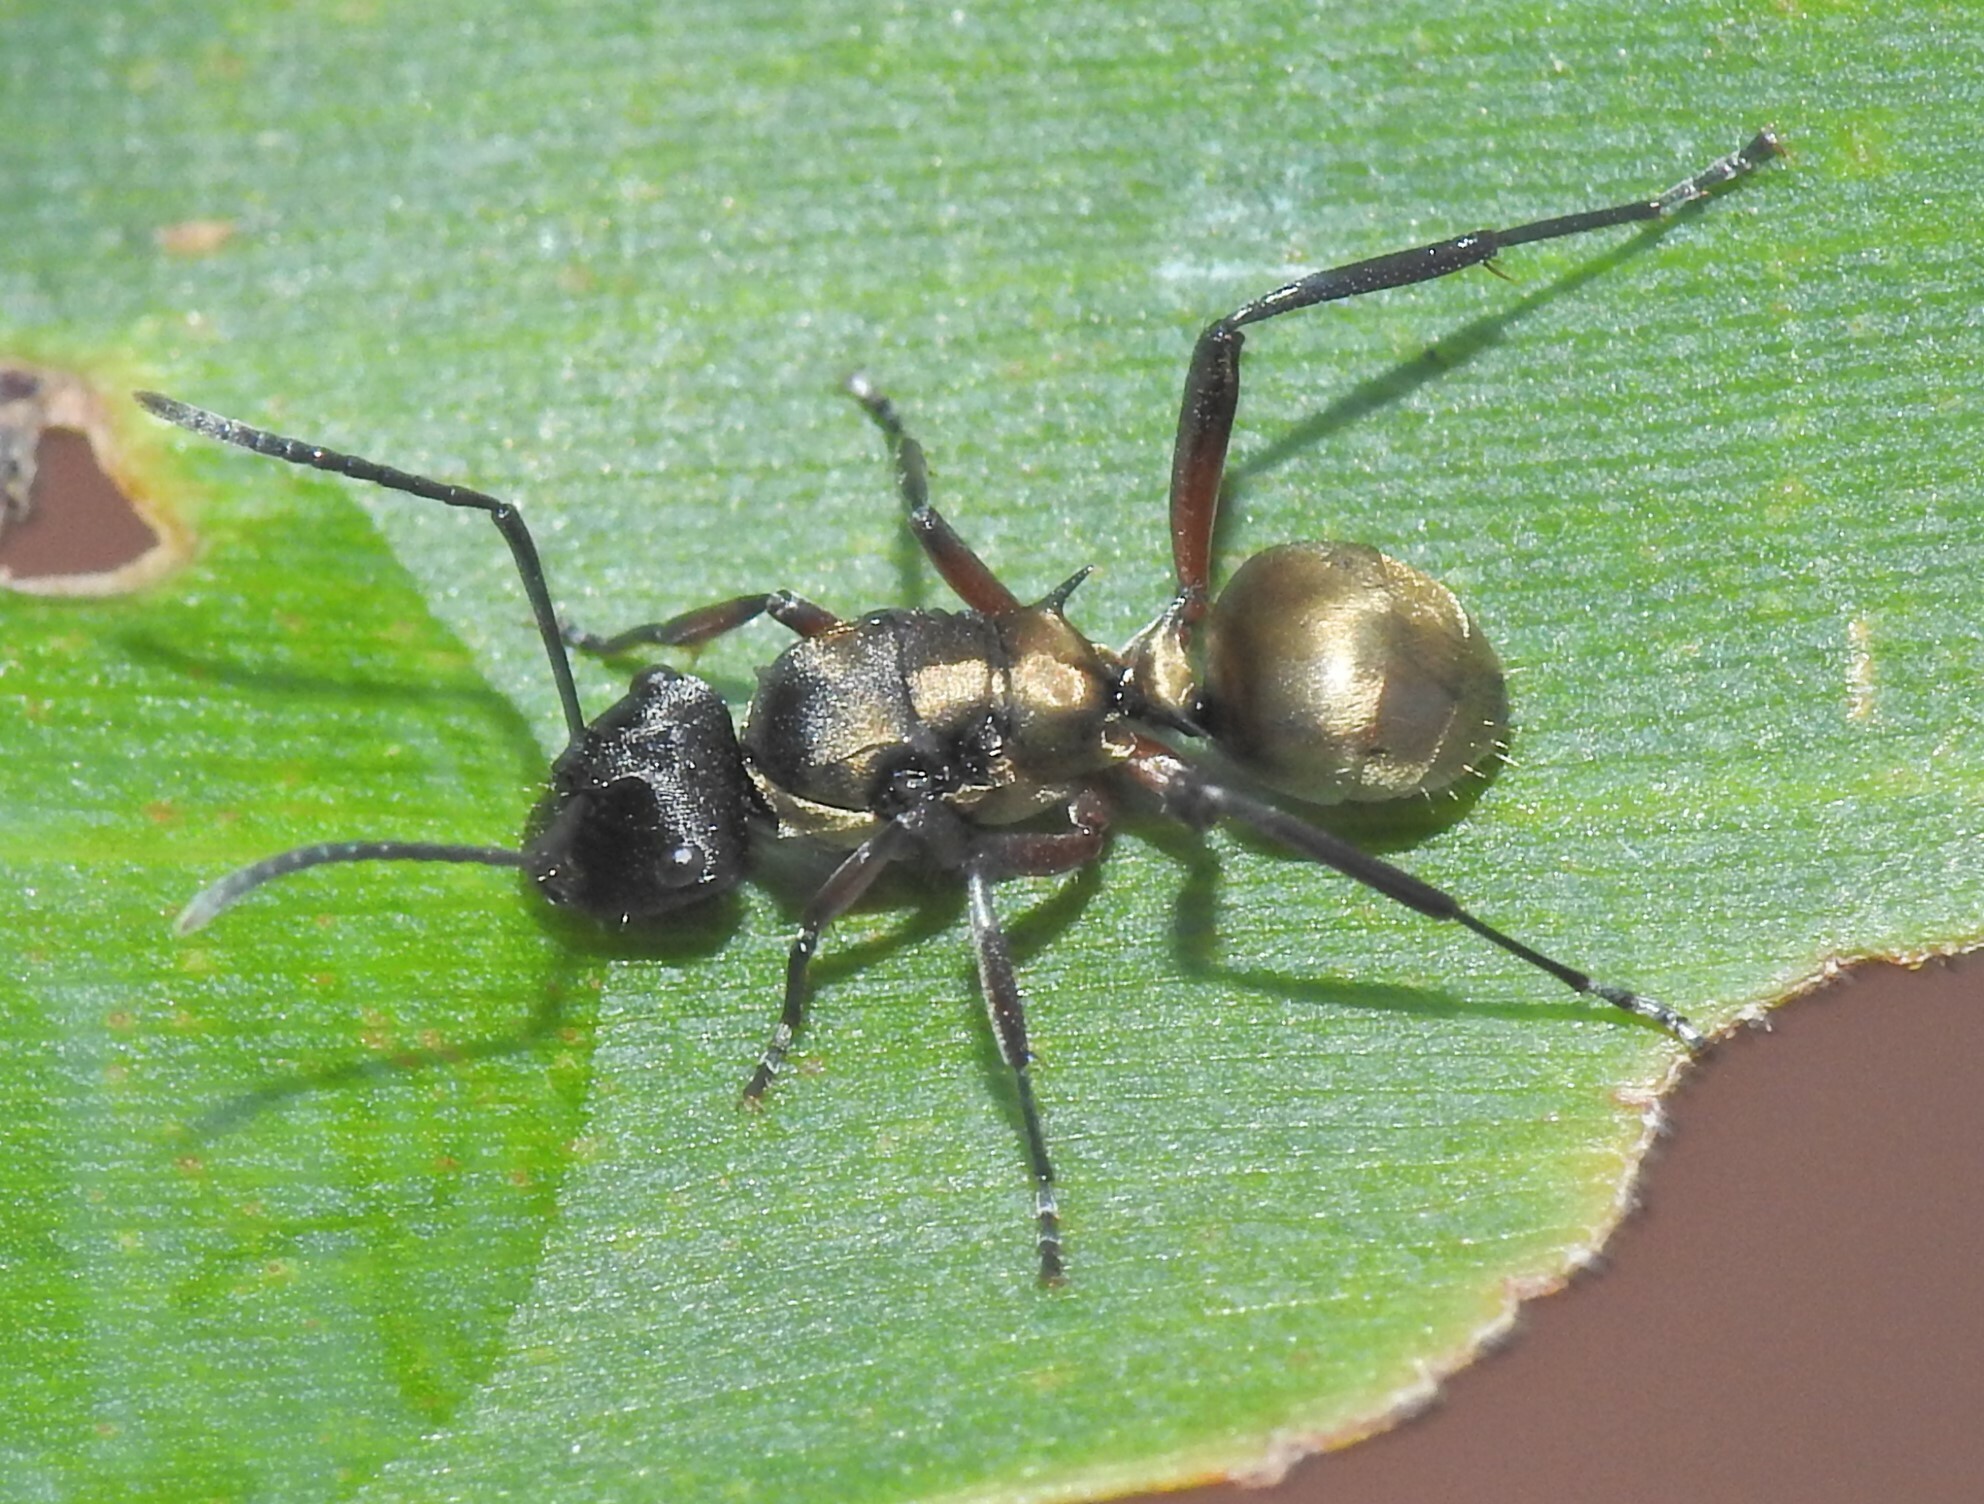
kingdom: Animalia
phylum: Arthropoda
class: Insecta
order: Hymenoptera
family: Formicidae
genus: Polyrhachis
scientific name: Polyrhachis rufifemur
